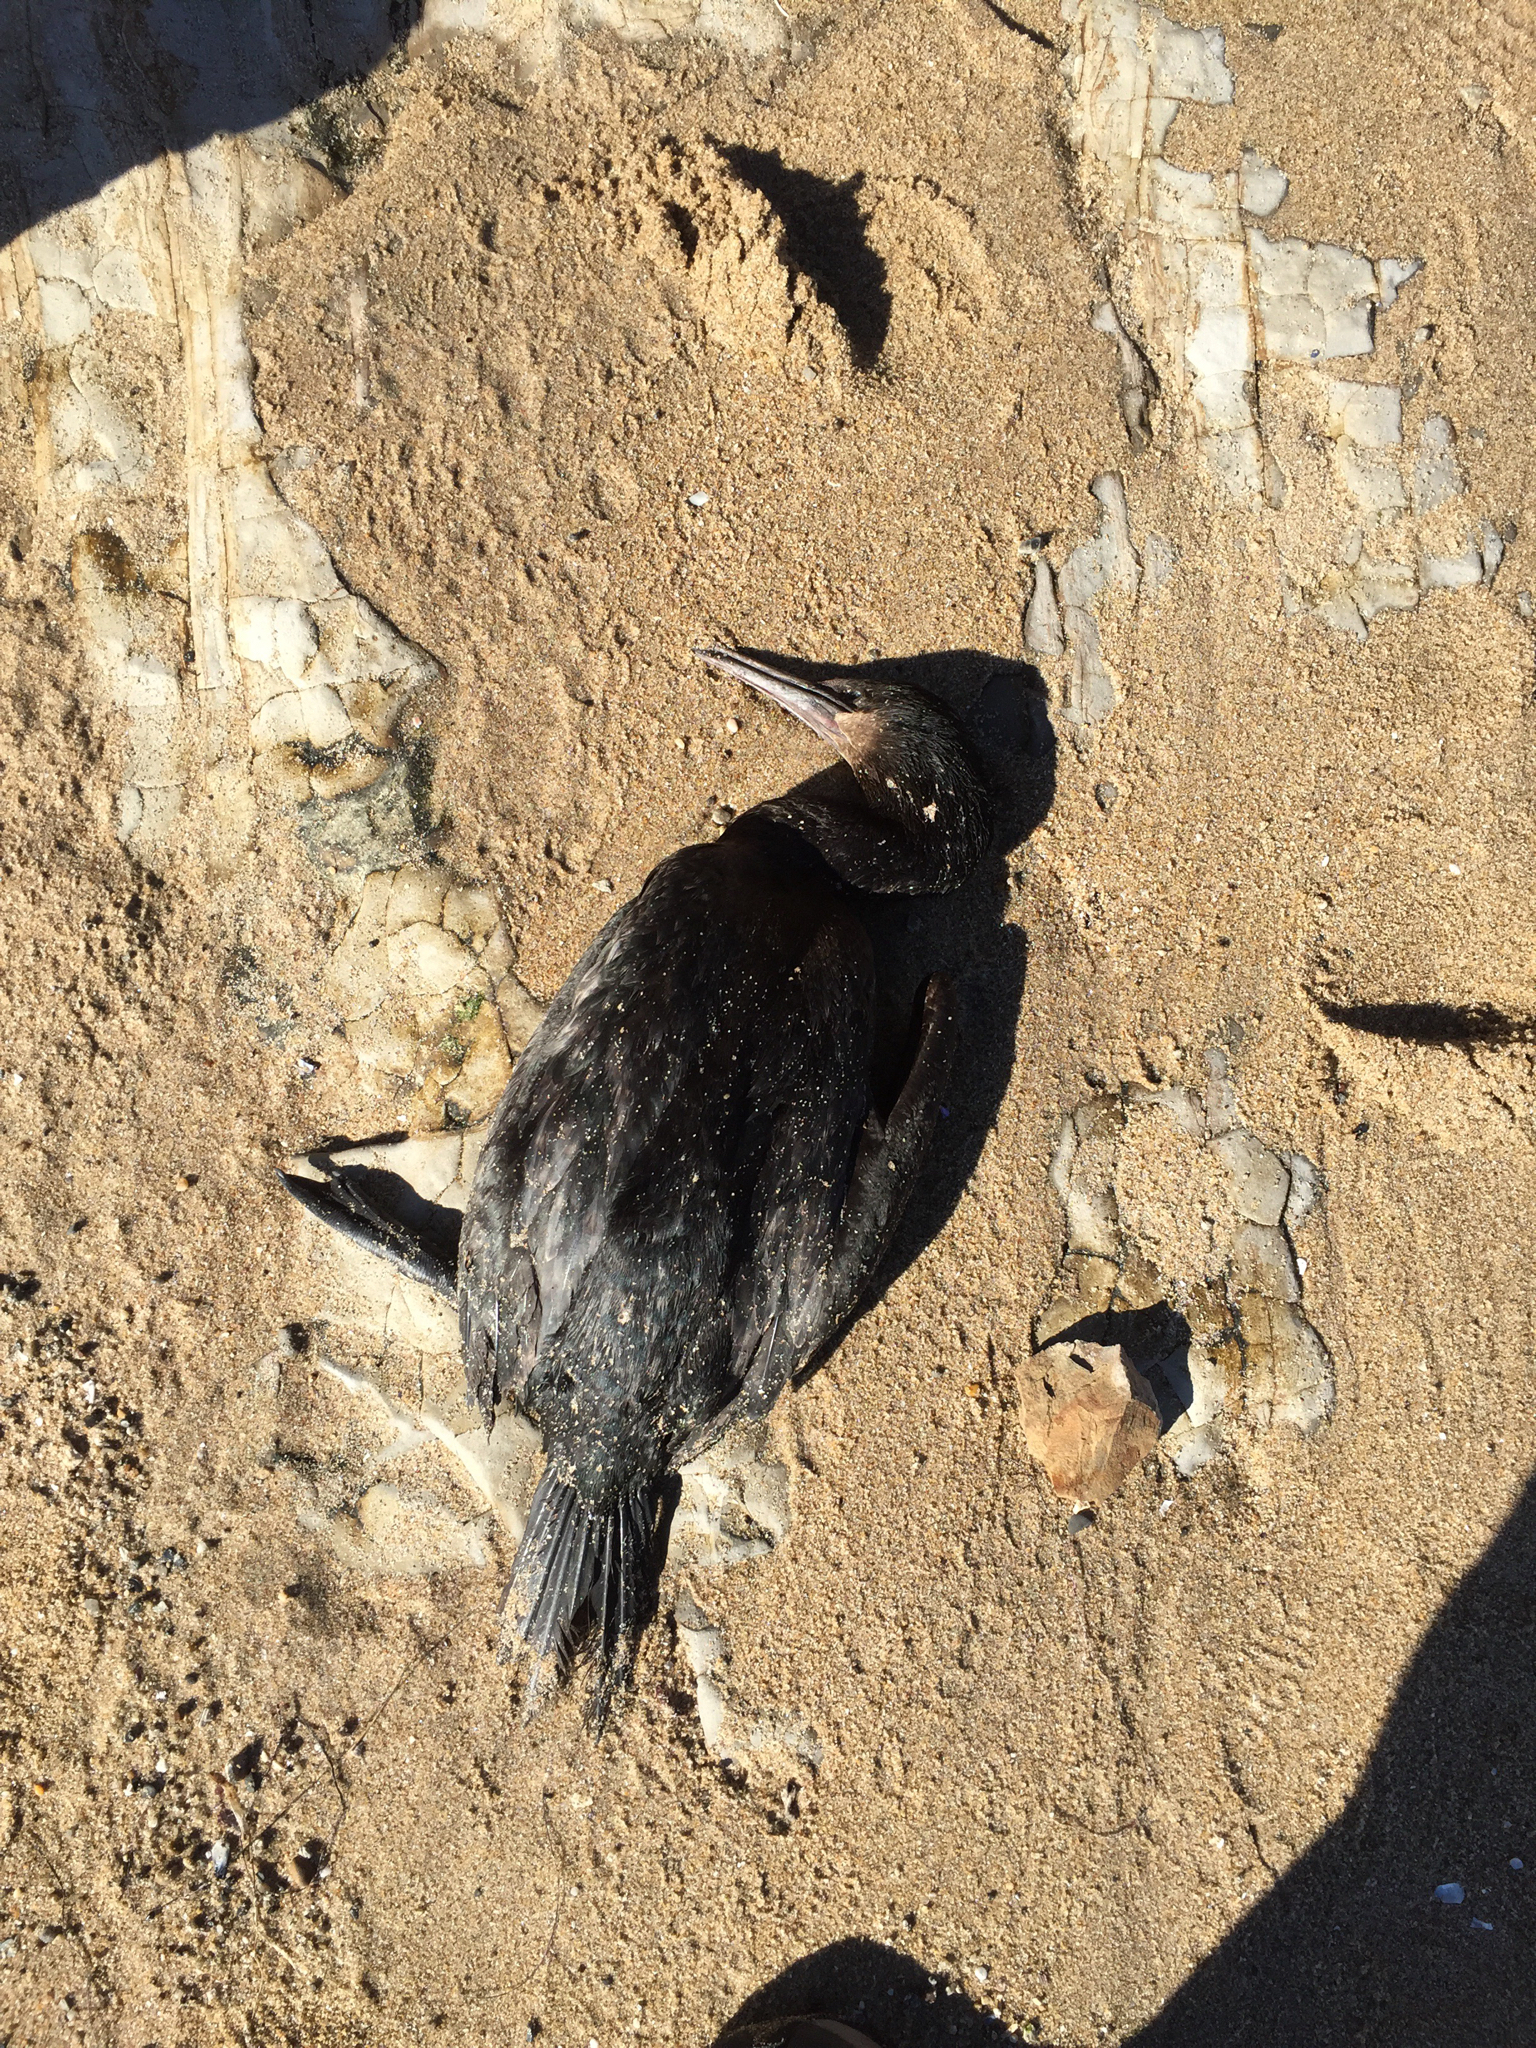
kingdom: Animalia
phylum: Chordata
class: Aves
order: Suliformes
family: Phalacrocoracidae
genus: Urile
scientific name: Urile penicillatus
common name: Brandt's cormorant
